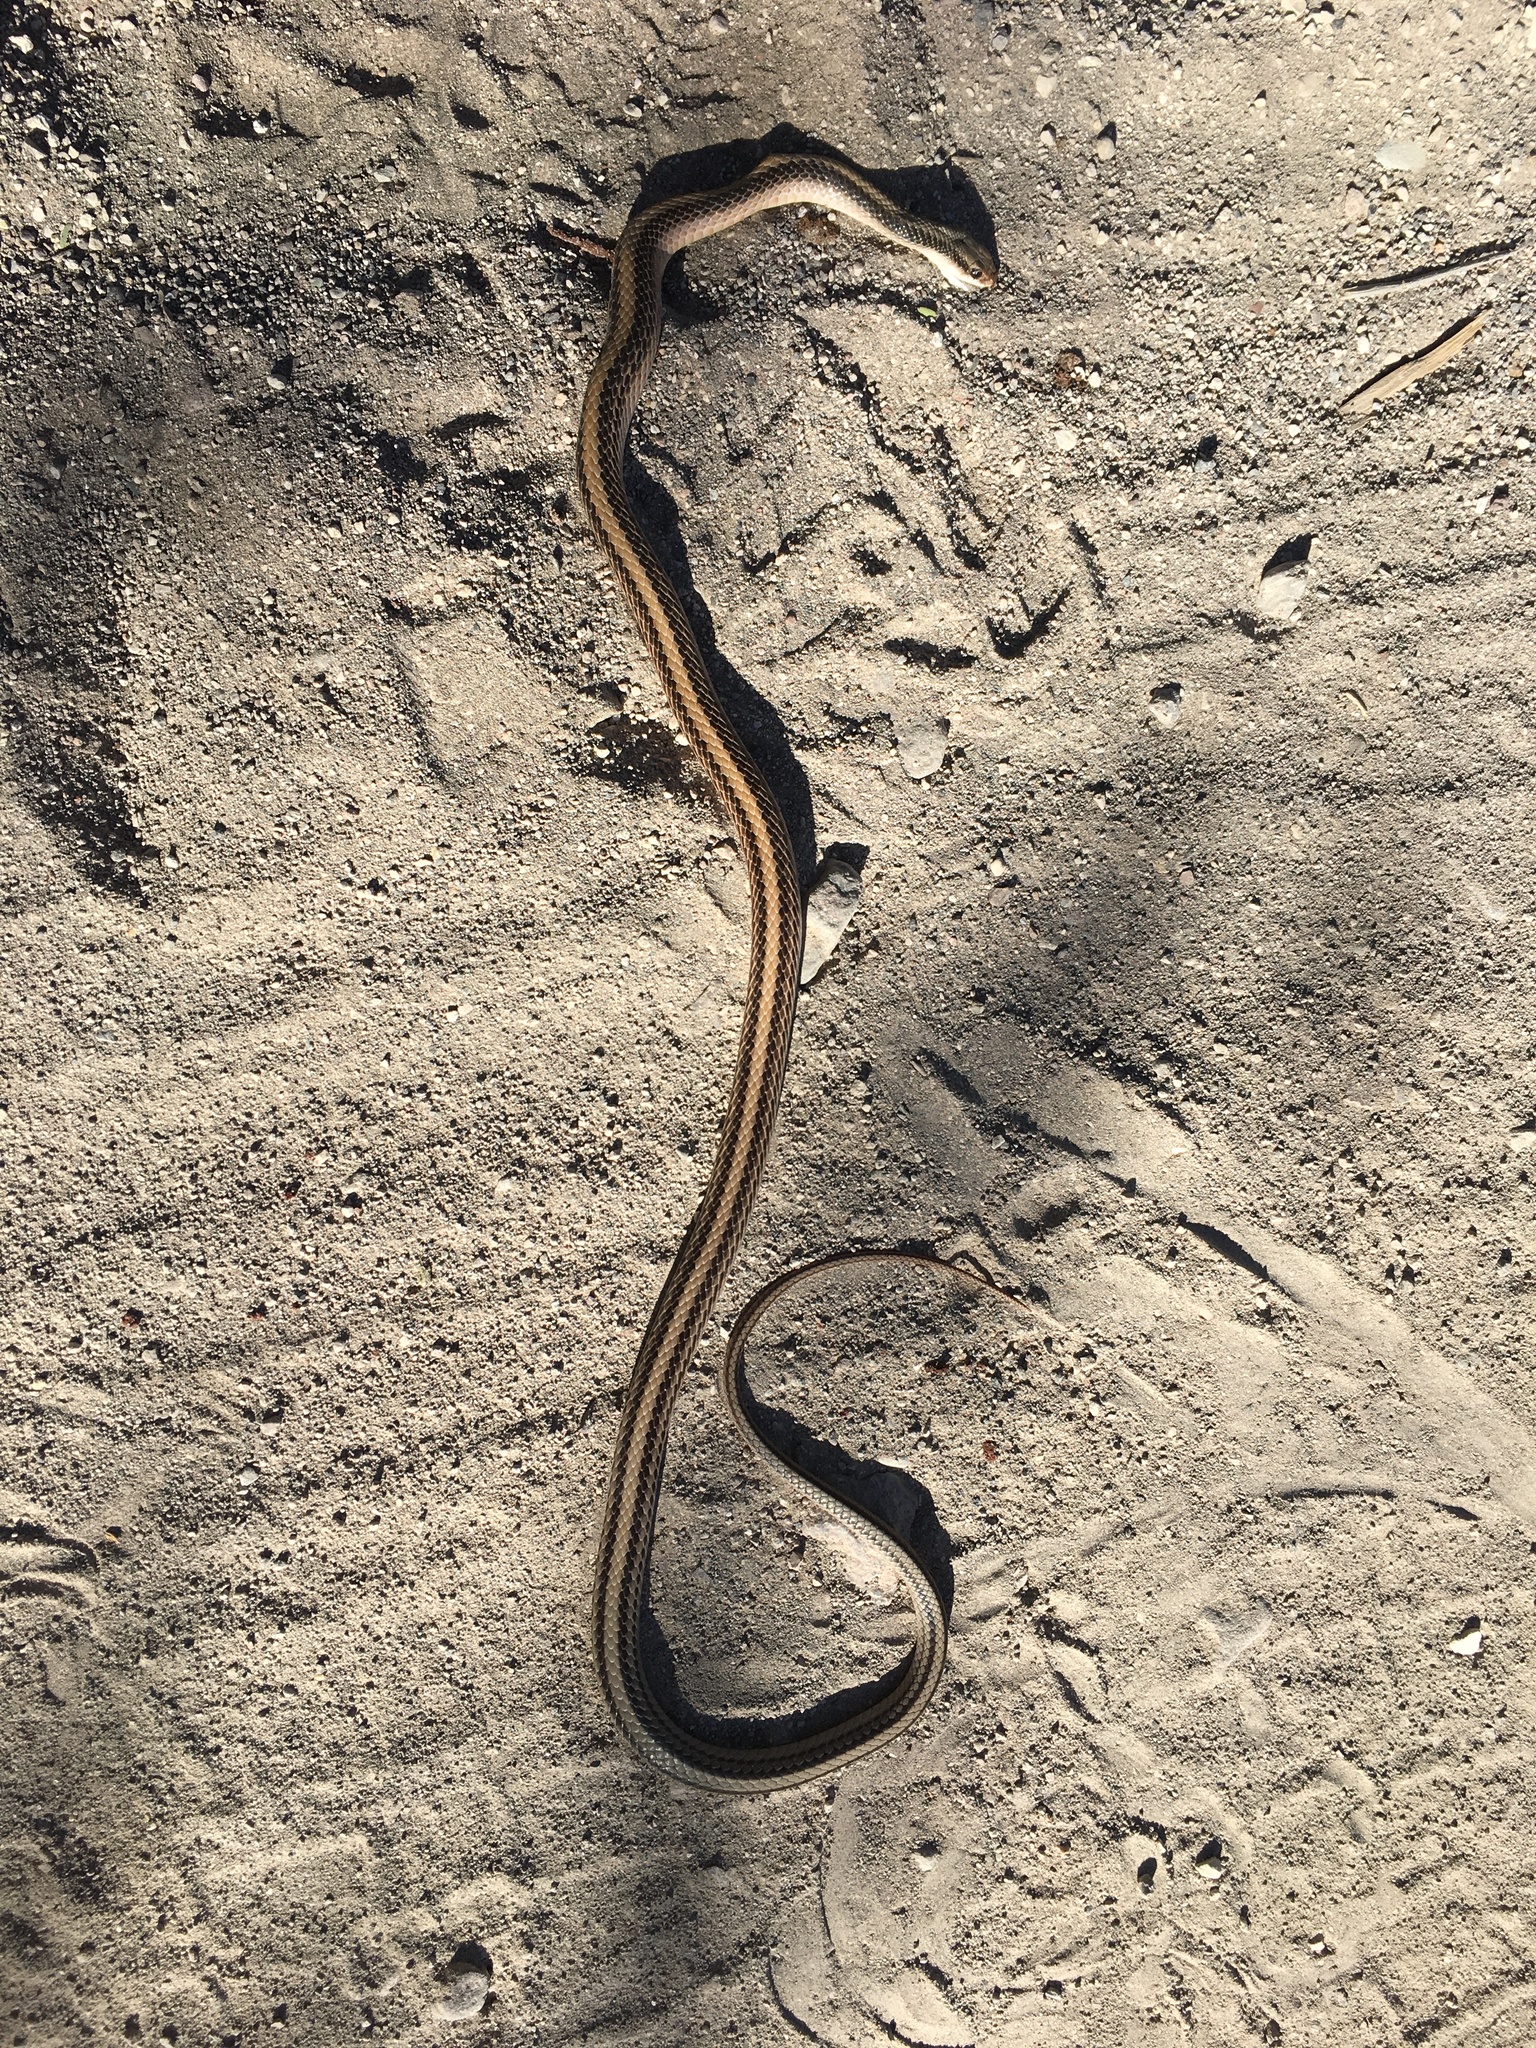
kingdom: Animalia
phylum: Chordata
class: Squamata
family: Colubridae
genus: Salvadora
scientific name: Salvadora hexalepis
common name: Western patchnose snake
